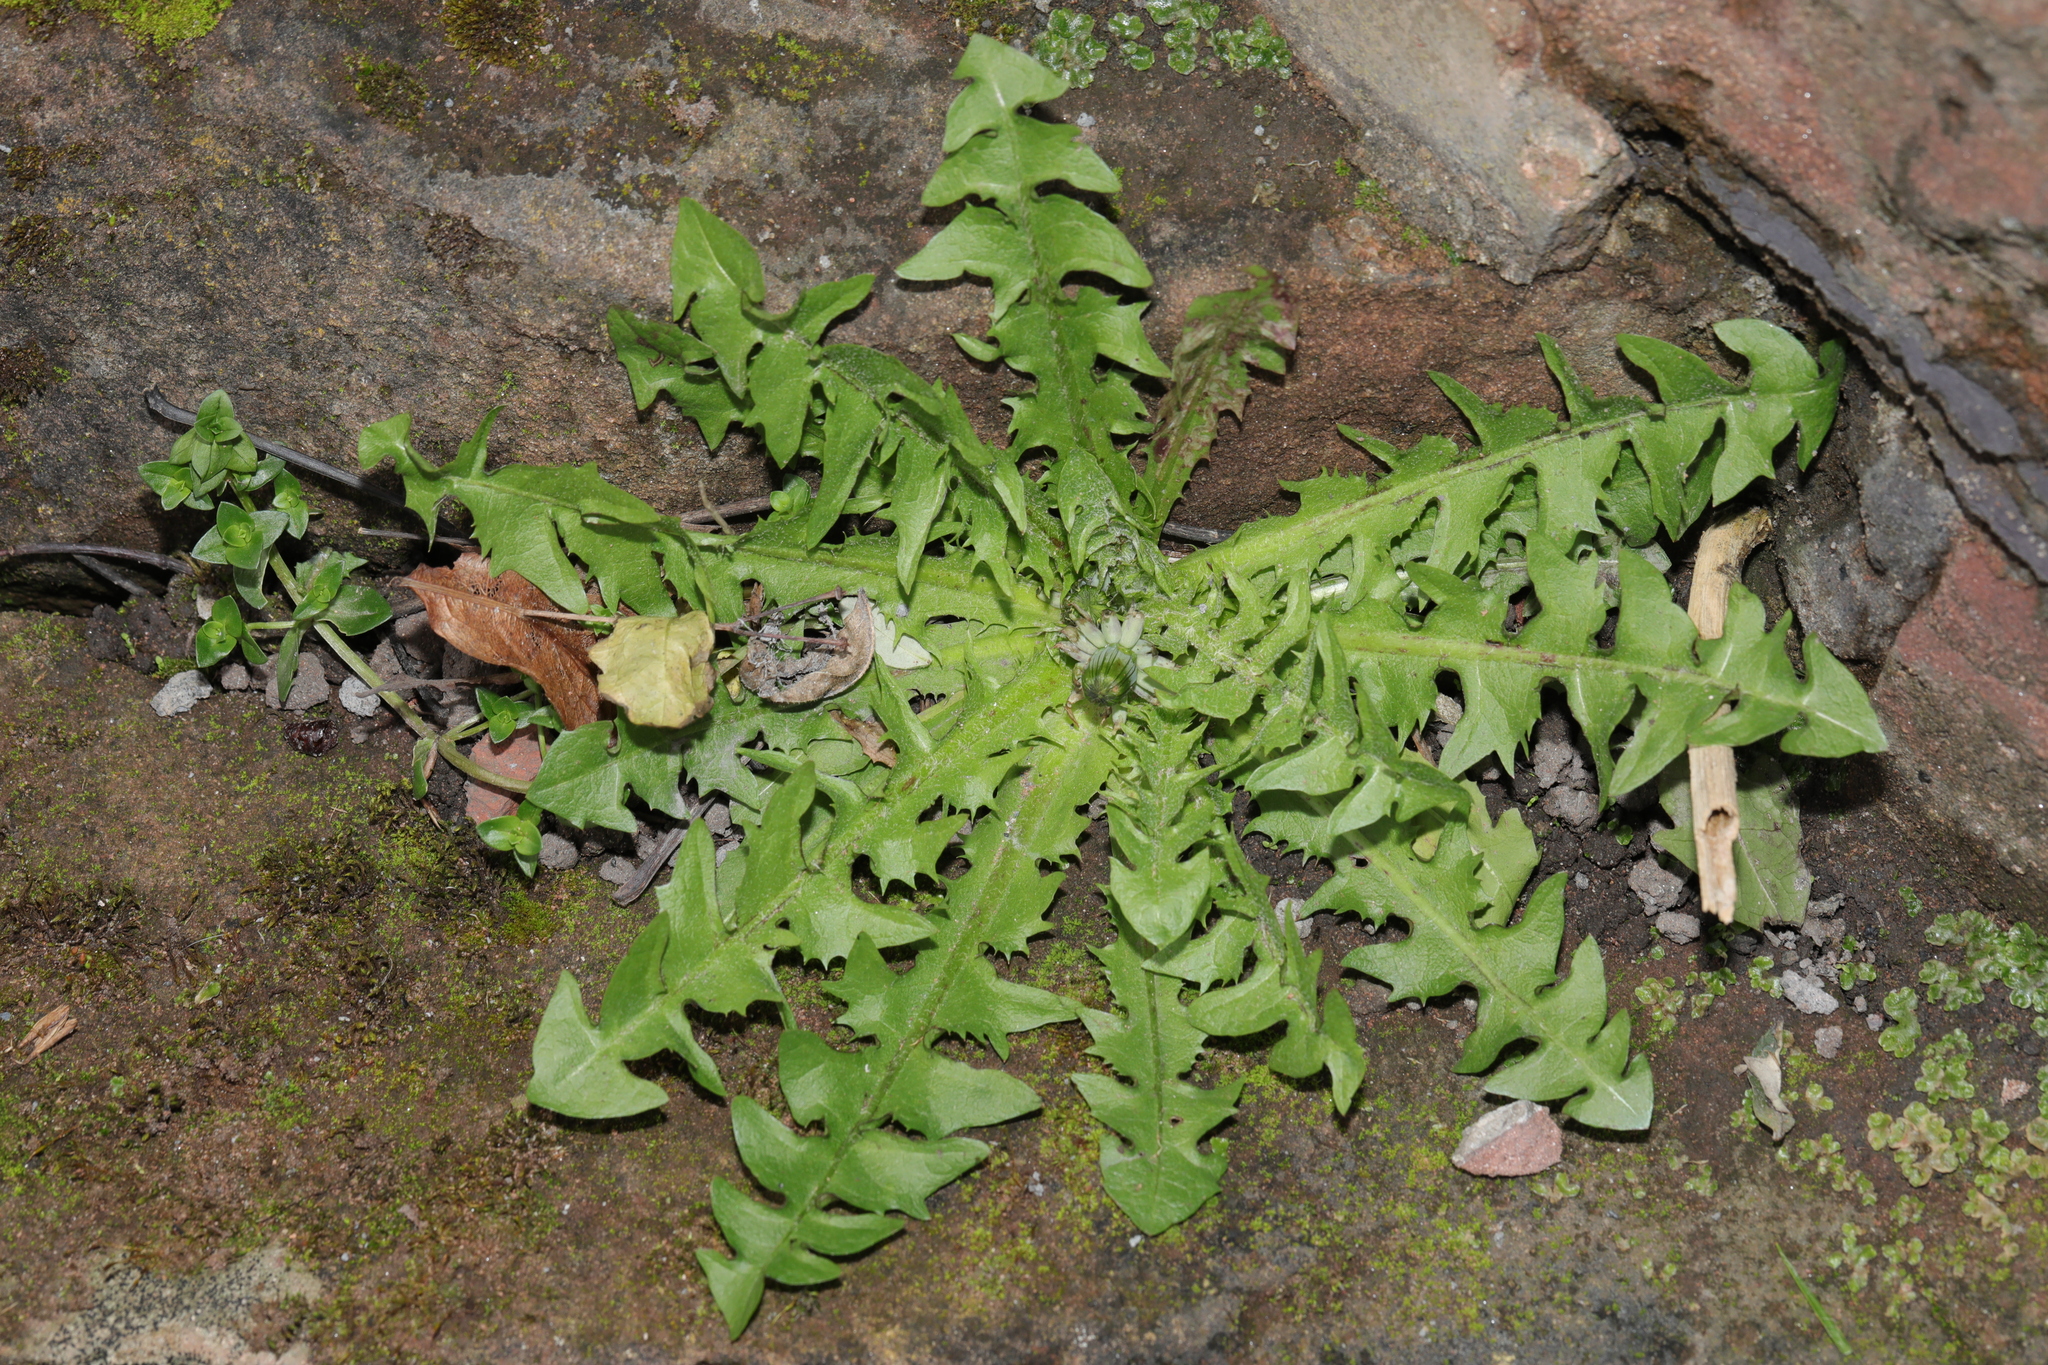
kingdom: Plantae
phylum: Tracheophyta
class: Magnoliopsida
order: Asterales
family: Asteraceae
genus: Taraxacum
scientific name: Taraxacum officinale
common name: Common dandelion
